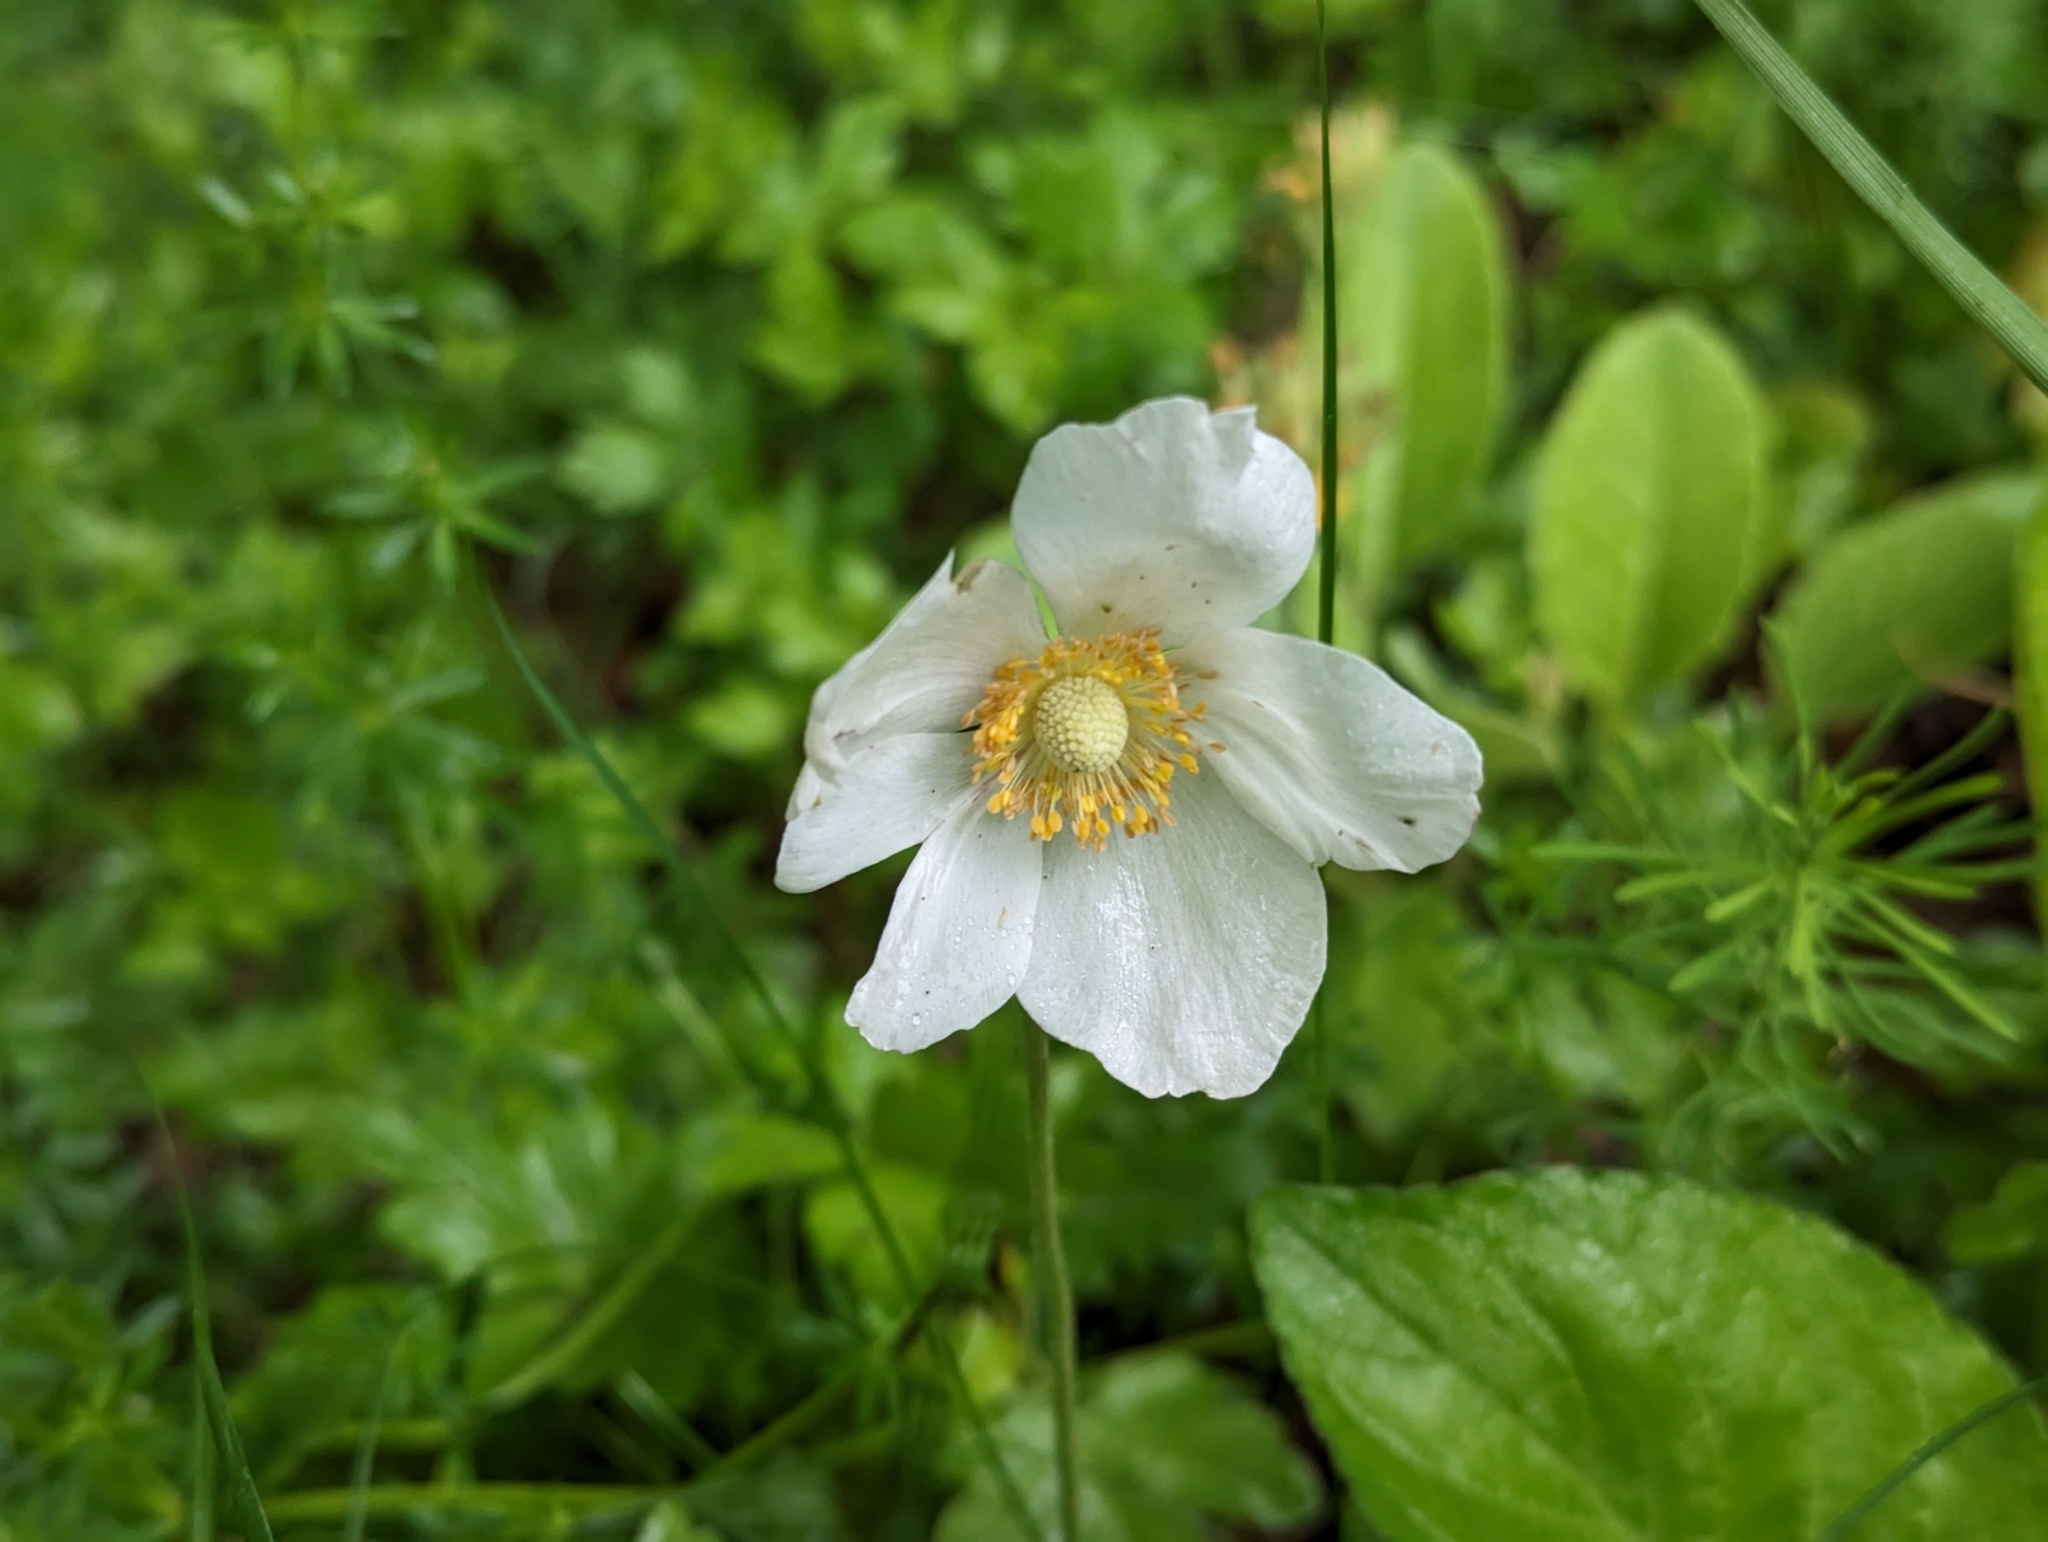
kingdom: Plantae
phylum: Tracheophyta
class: Magnoliopsida
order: Ranunculales
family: Ranunculaceae
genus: Anemone
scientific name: Anemone sylvestris
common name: Snowdrop anemone
